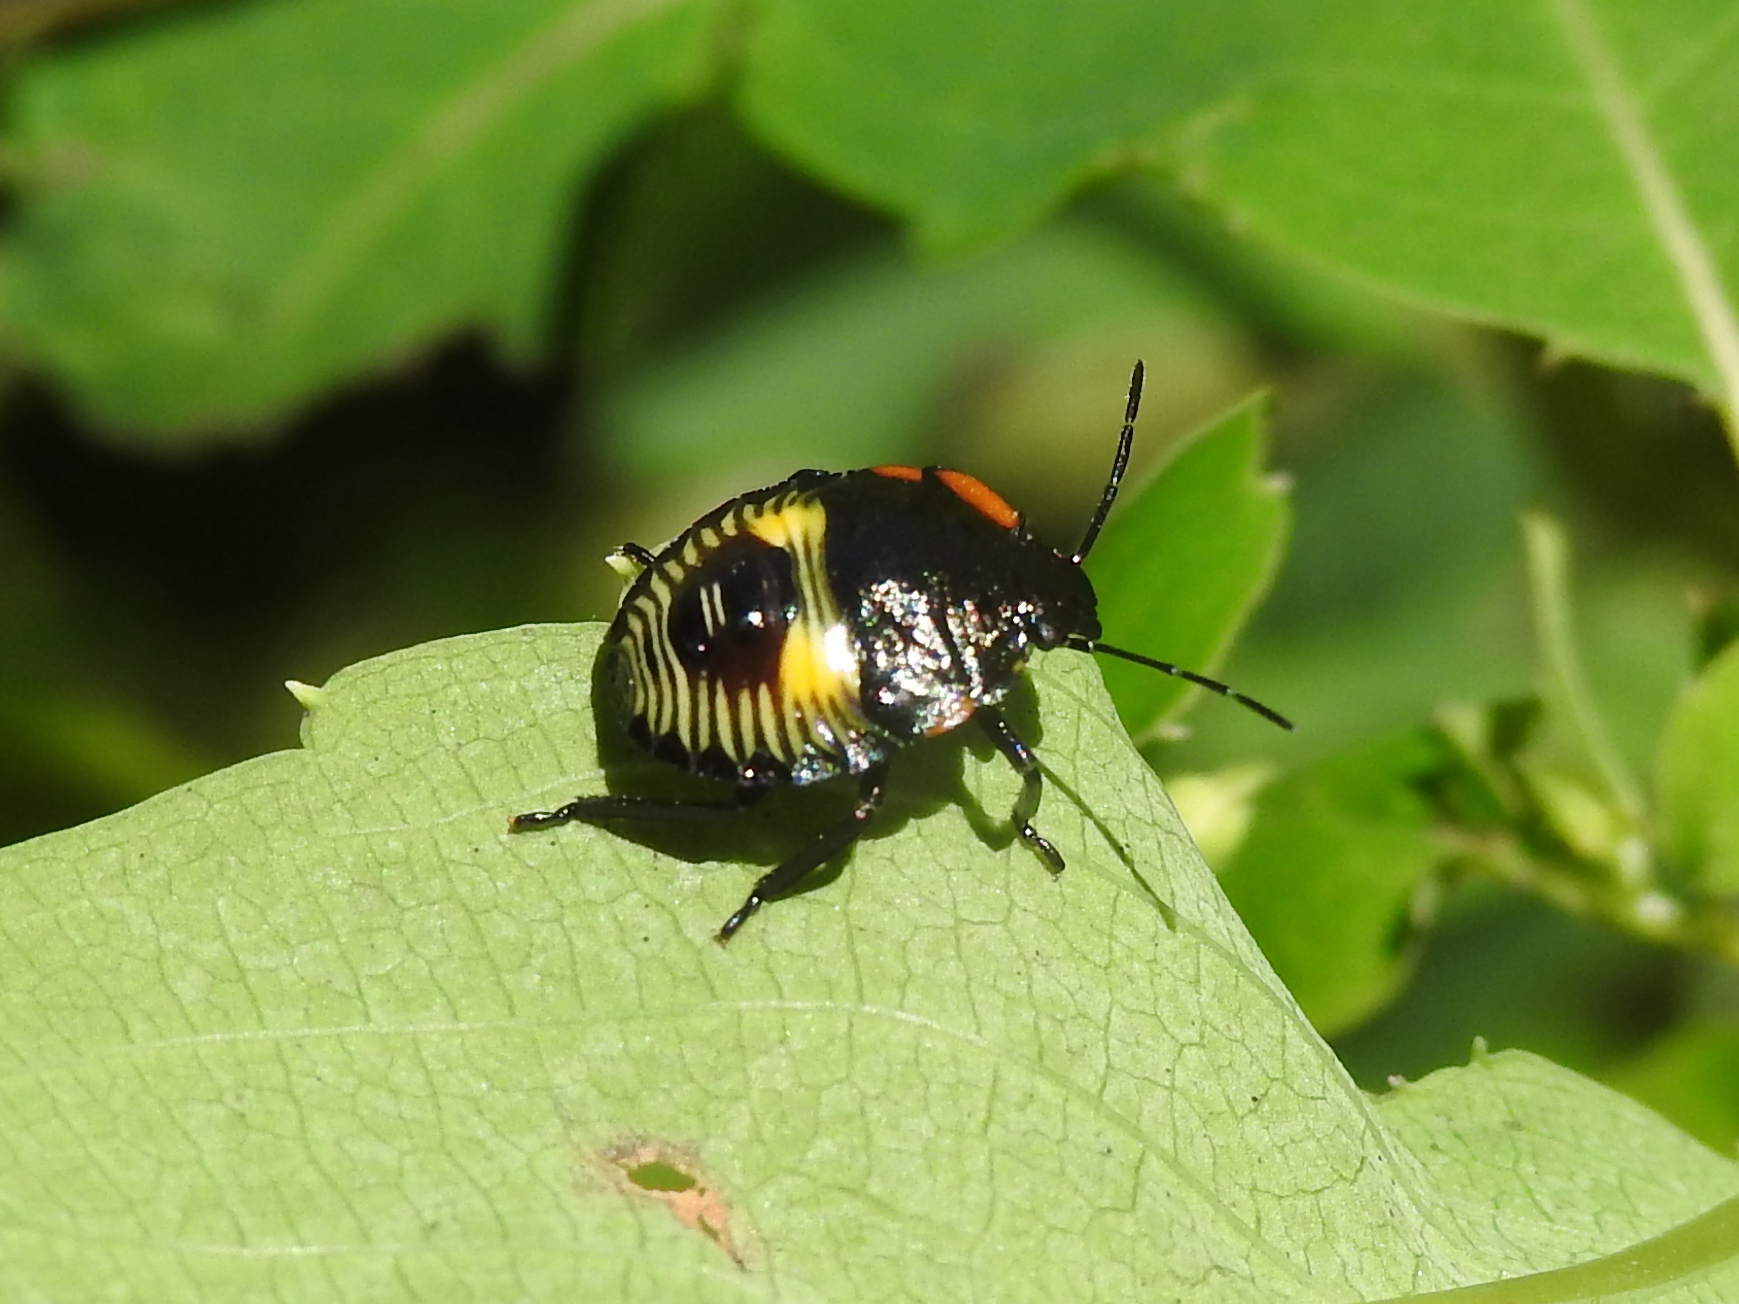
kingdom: Animalia
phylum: Arthropoda
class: Insecta
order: Hemiptera
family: Pentatomidae
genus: Chinavia
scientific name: Chinavia hilaris
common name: Green stink bug
